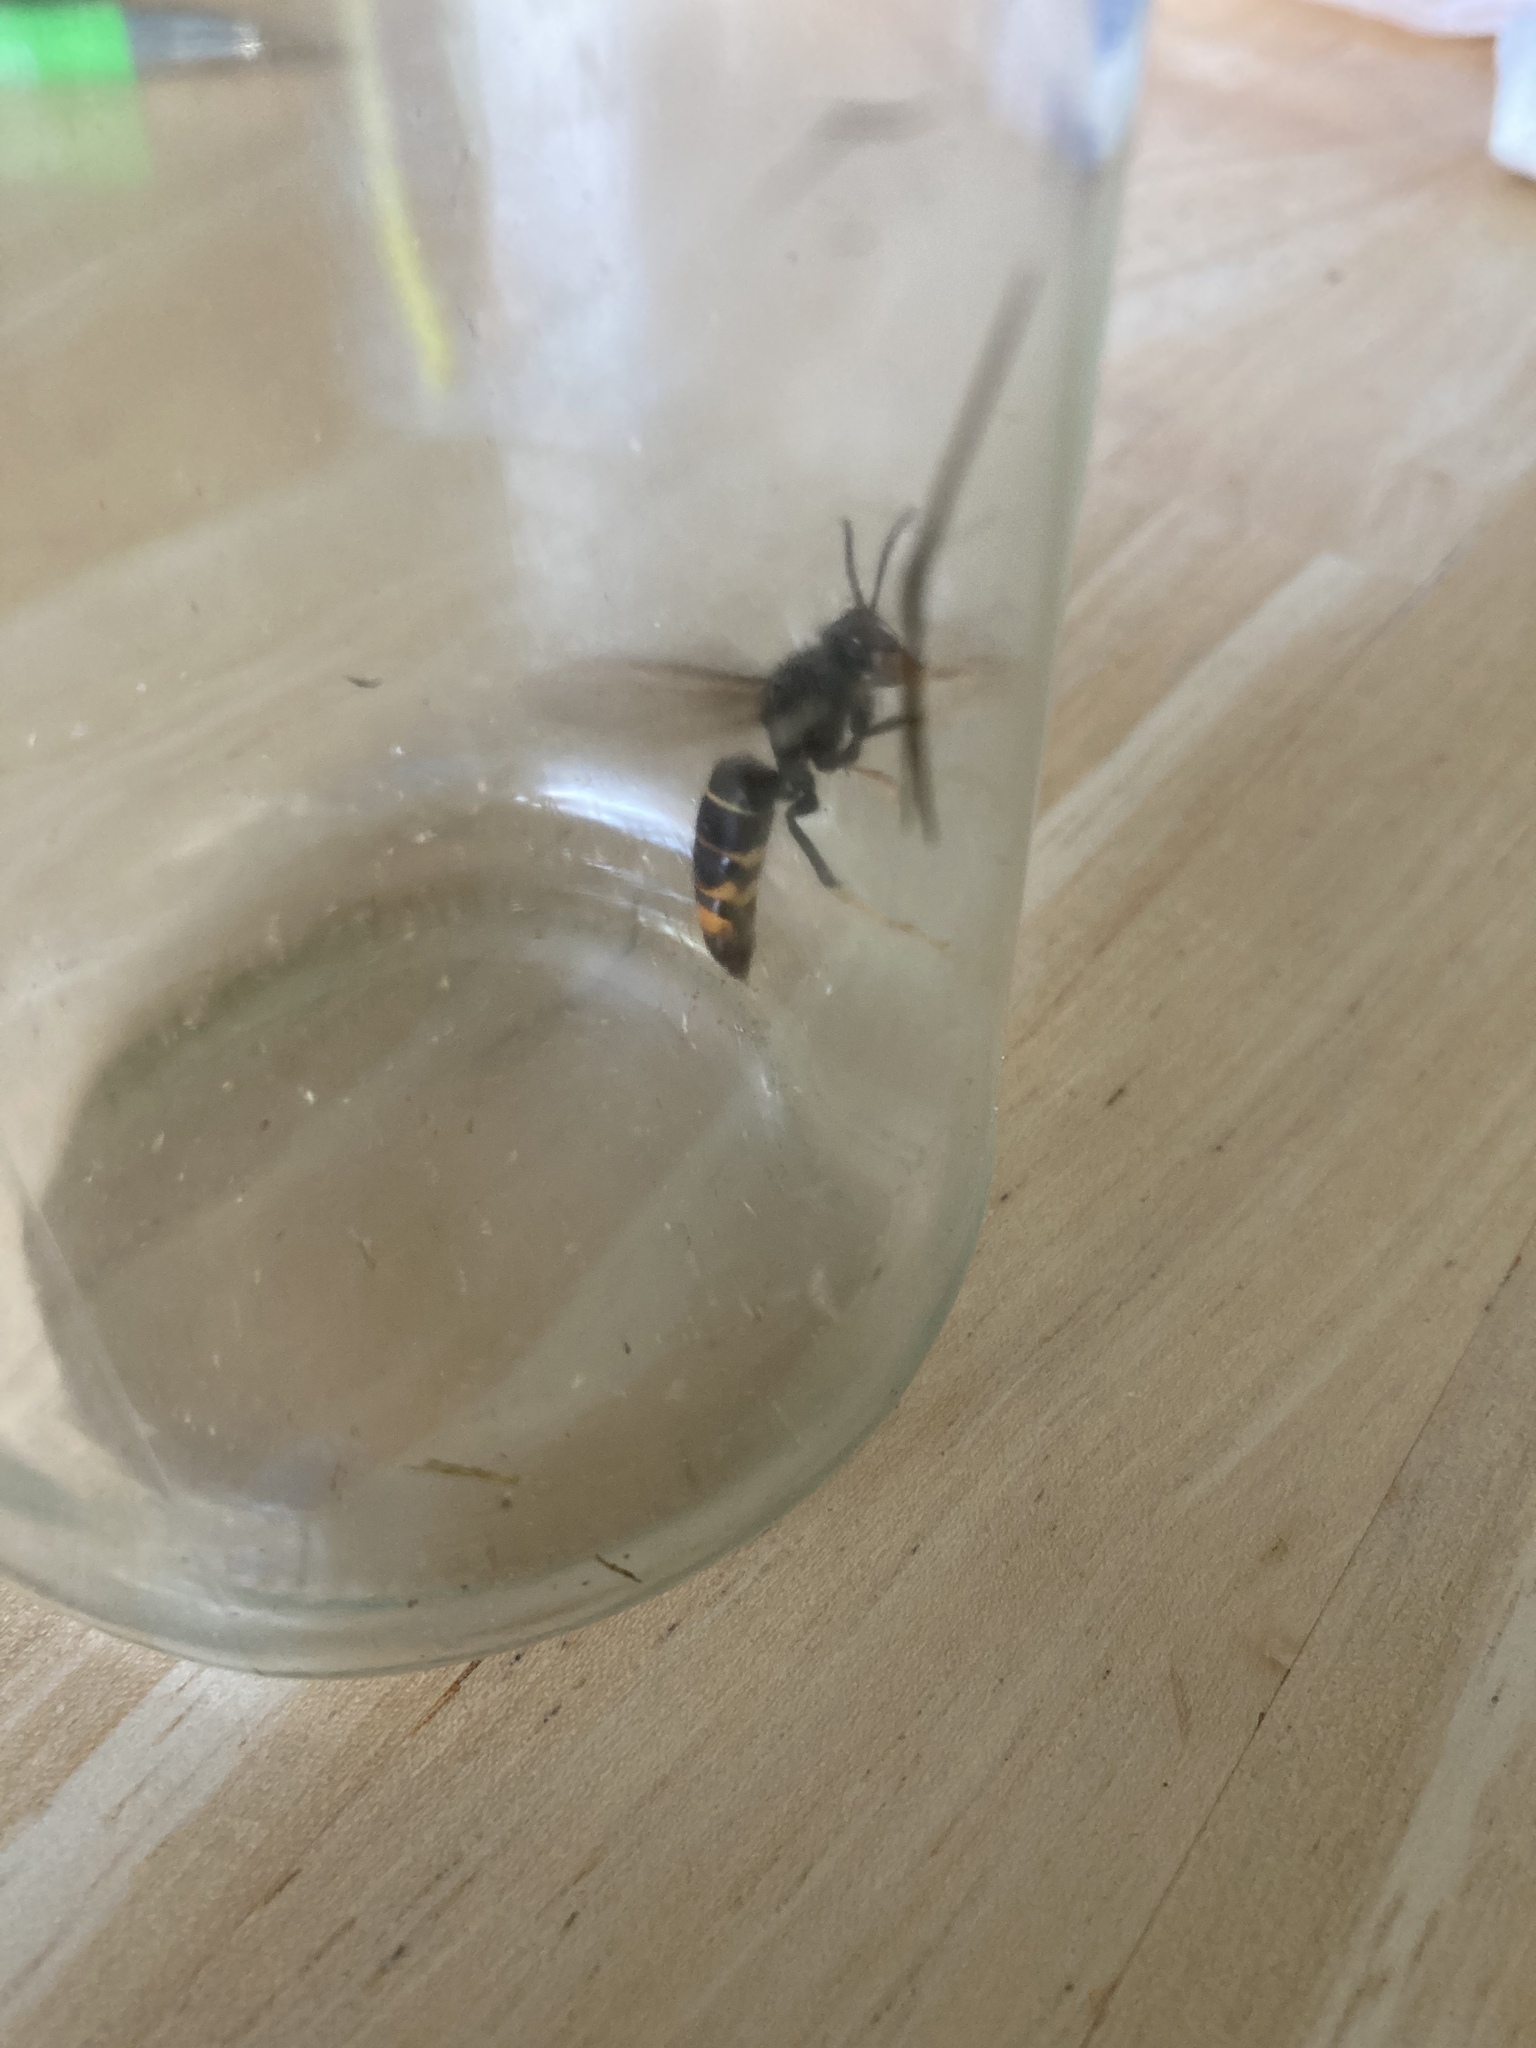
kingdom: Animalia
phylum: Arthropoda
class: Insecta
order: Hymenoptera
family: Vespidae
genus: Vespa
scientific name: Vespa velutina
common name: Asian hornet
